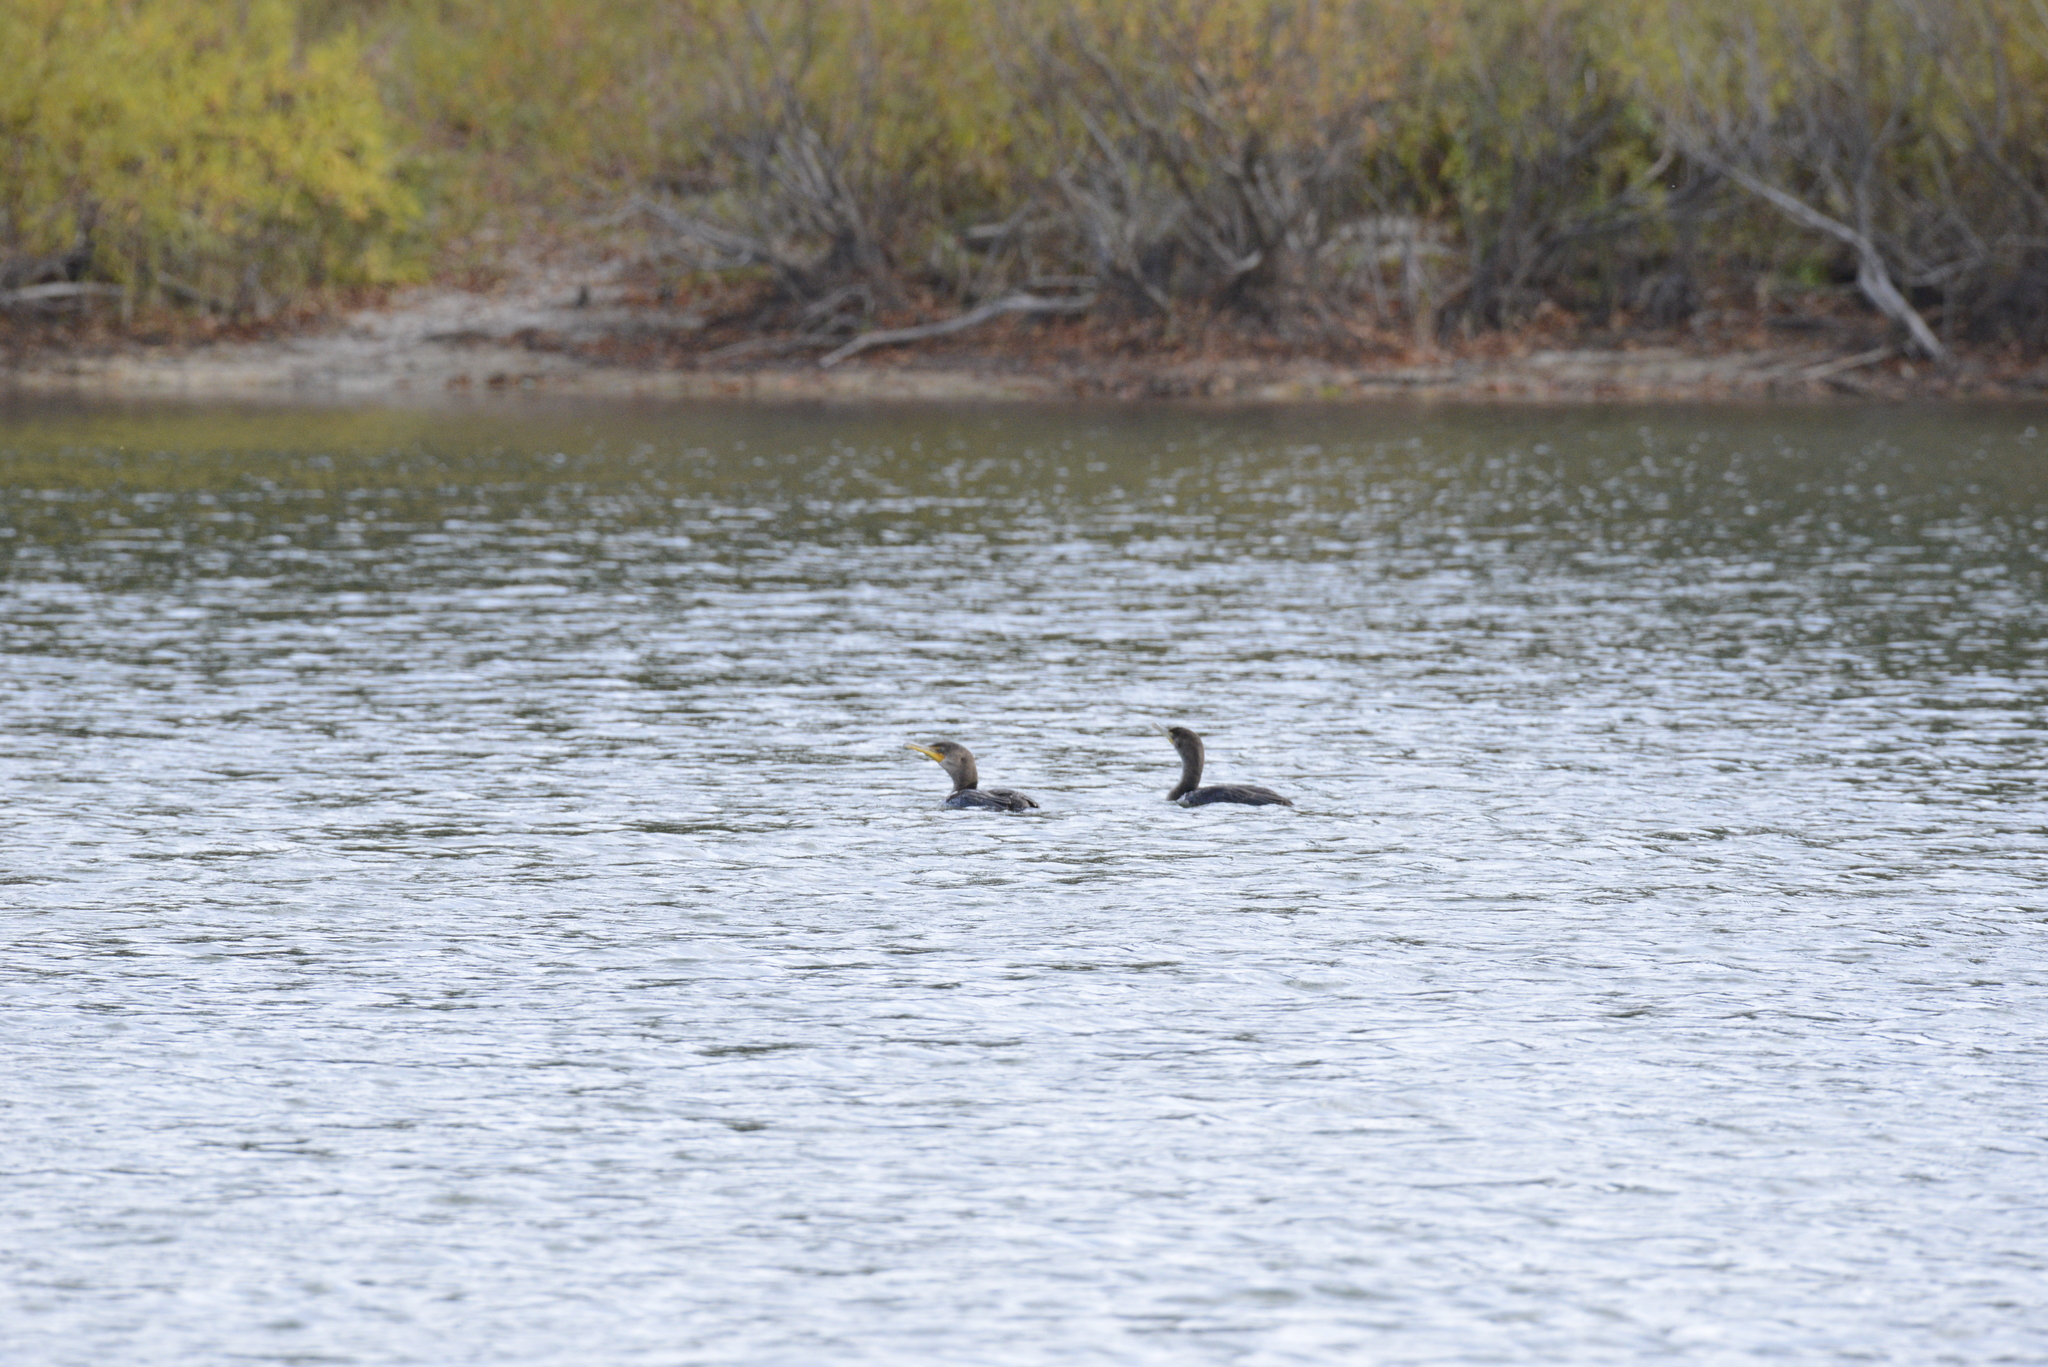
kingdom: Animalia
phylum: Chordata
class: Aves
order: Suliformes
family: Phalacrocoracidae
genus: Phalacrocorax
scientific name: Phalacrocorax auritus
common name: Double-crested cormorant
